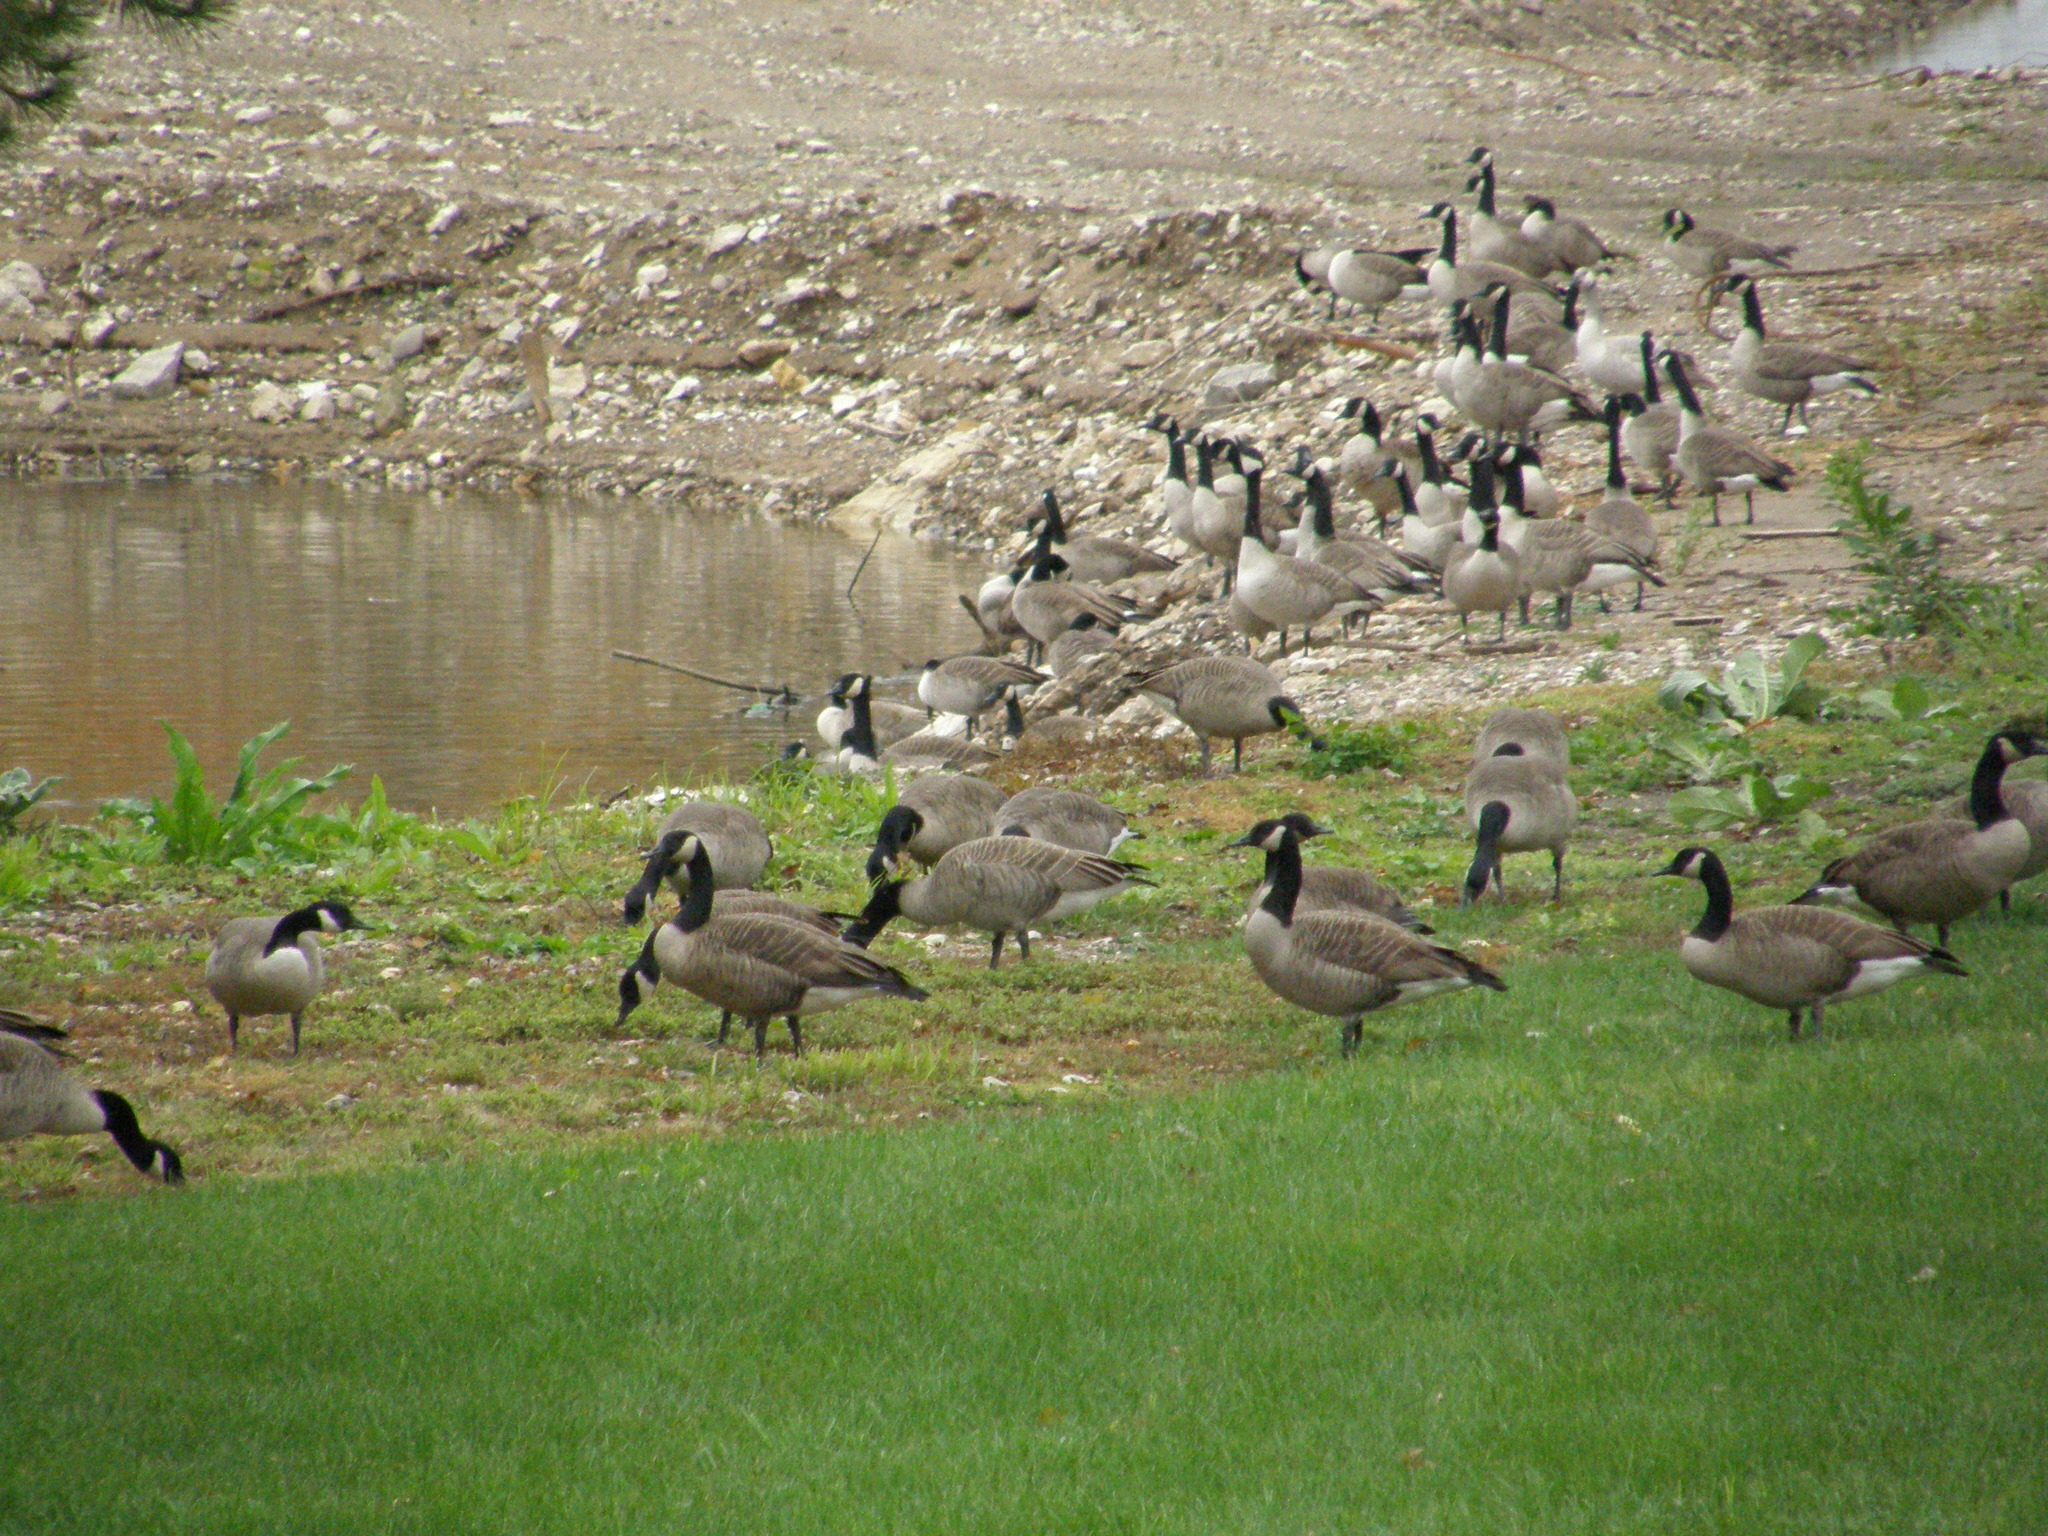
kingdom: Animalia
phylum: Chordata
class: Aves
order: Anseriformes
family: Anatidae
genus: Branta
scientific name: Branta canadensis
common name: Canada goose
